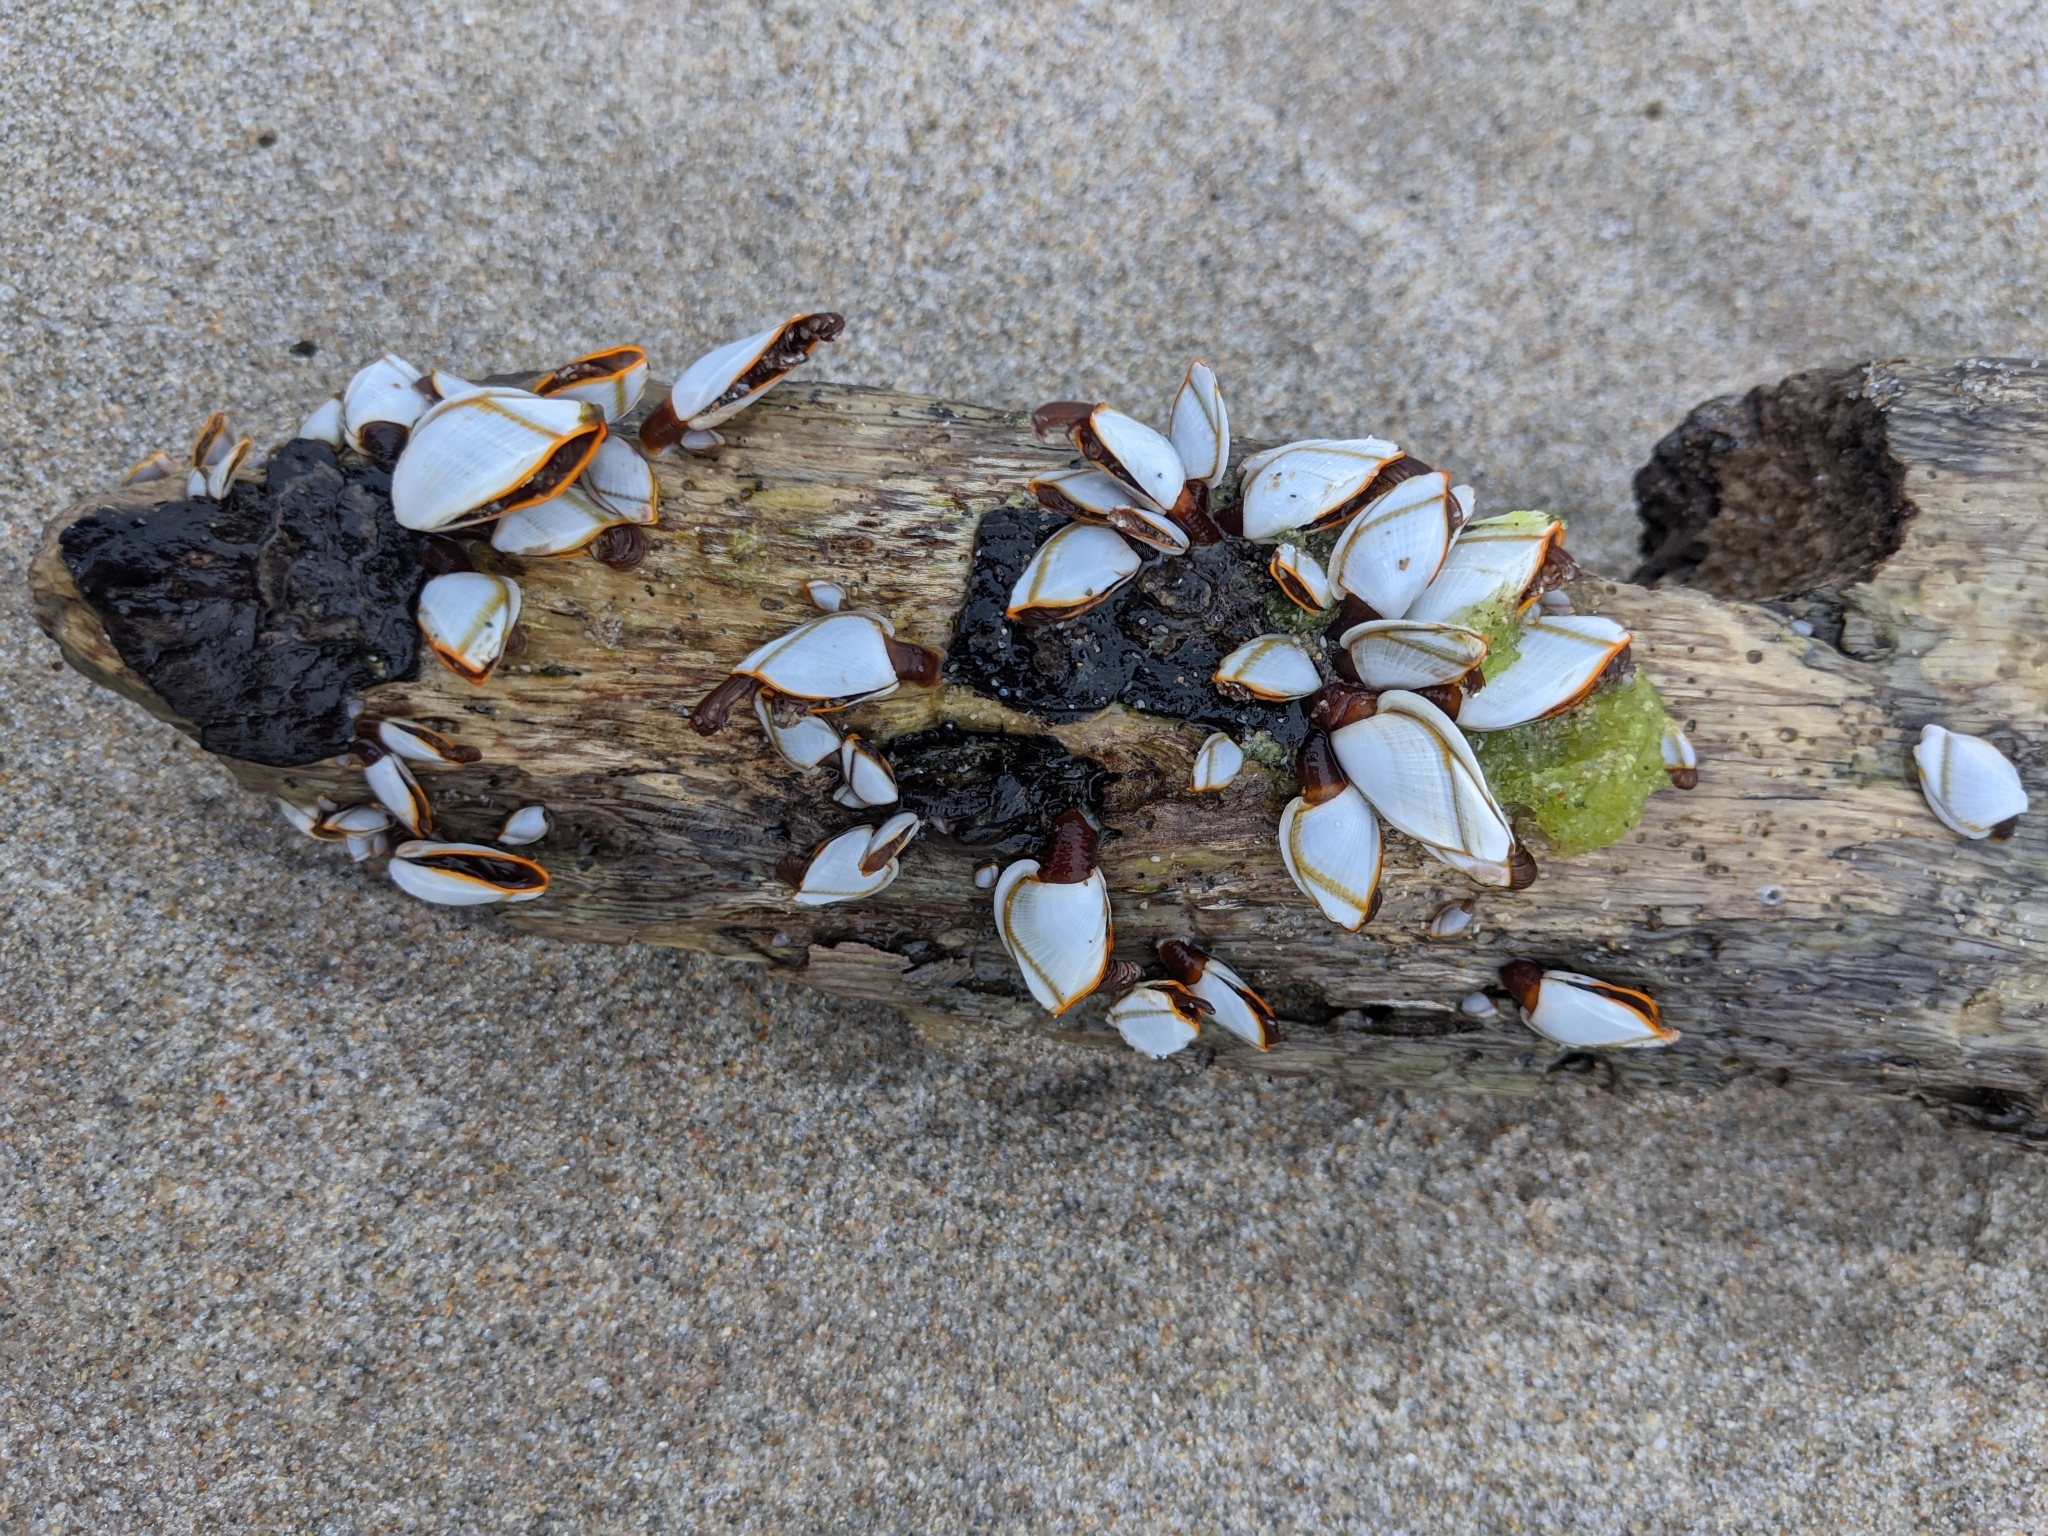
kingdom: Animalia
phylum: Arthropoda
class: Maxillopoda
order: Pedunculata
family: Lepadidae
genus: Lepas
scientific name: Lepas anserifera
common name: Goose barnacle
